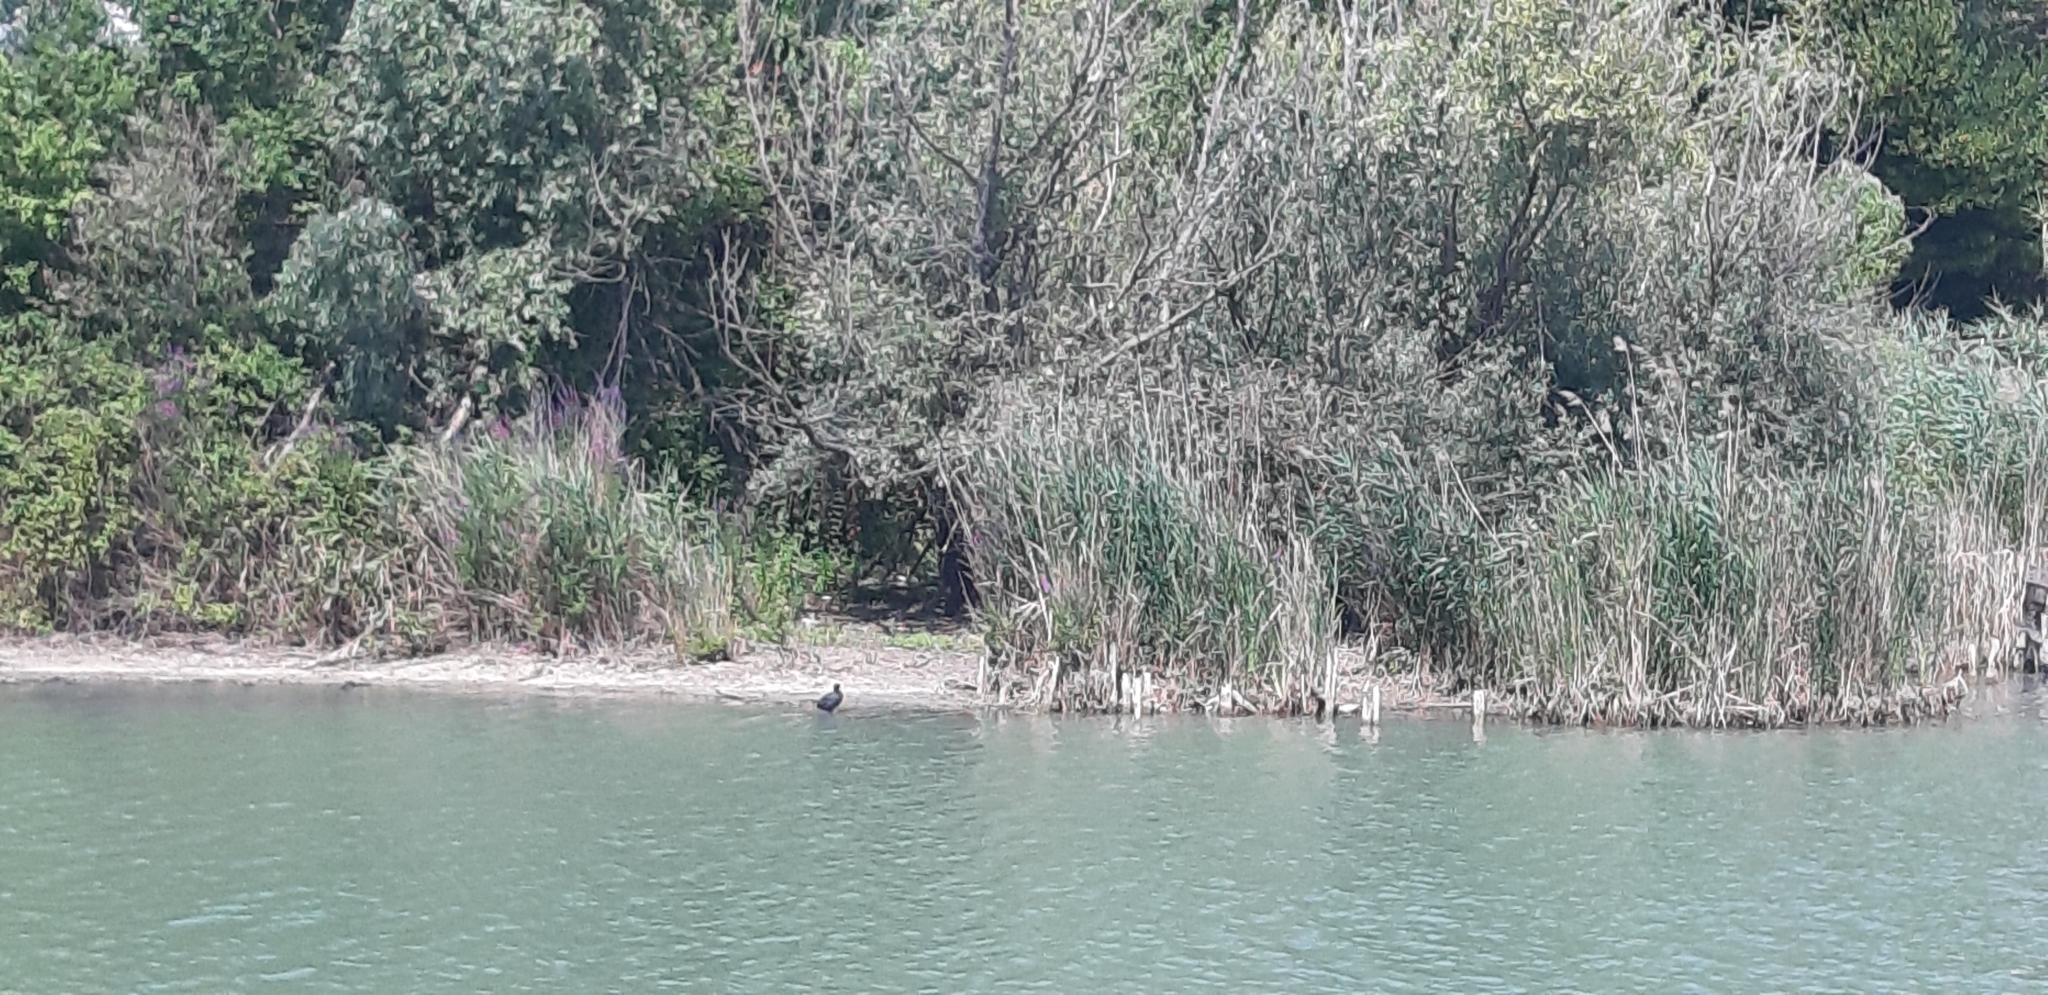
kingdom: Animalia
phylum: Chordata
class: Aves
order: Gruiformes
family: Rallidae
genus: Fulica
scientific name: Fulica atra
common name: Eurasian coot
